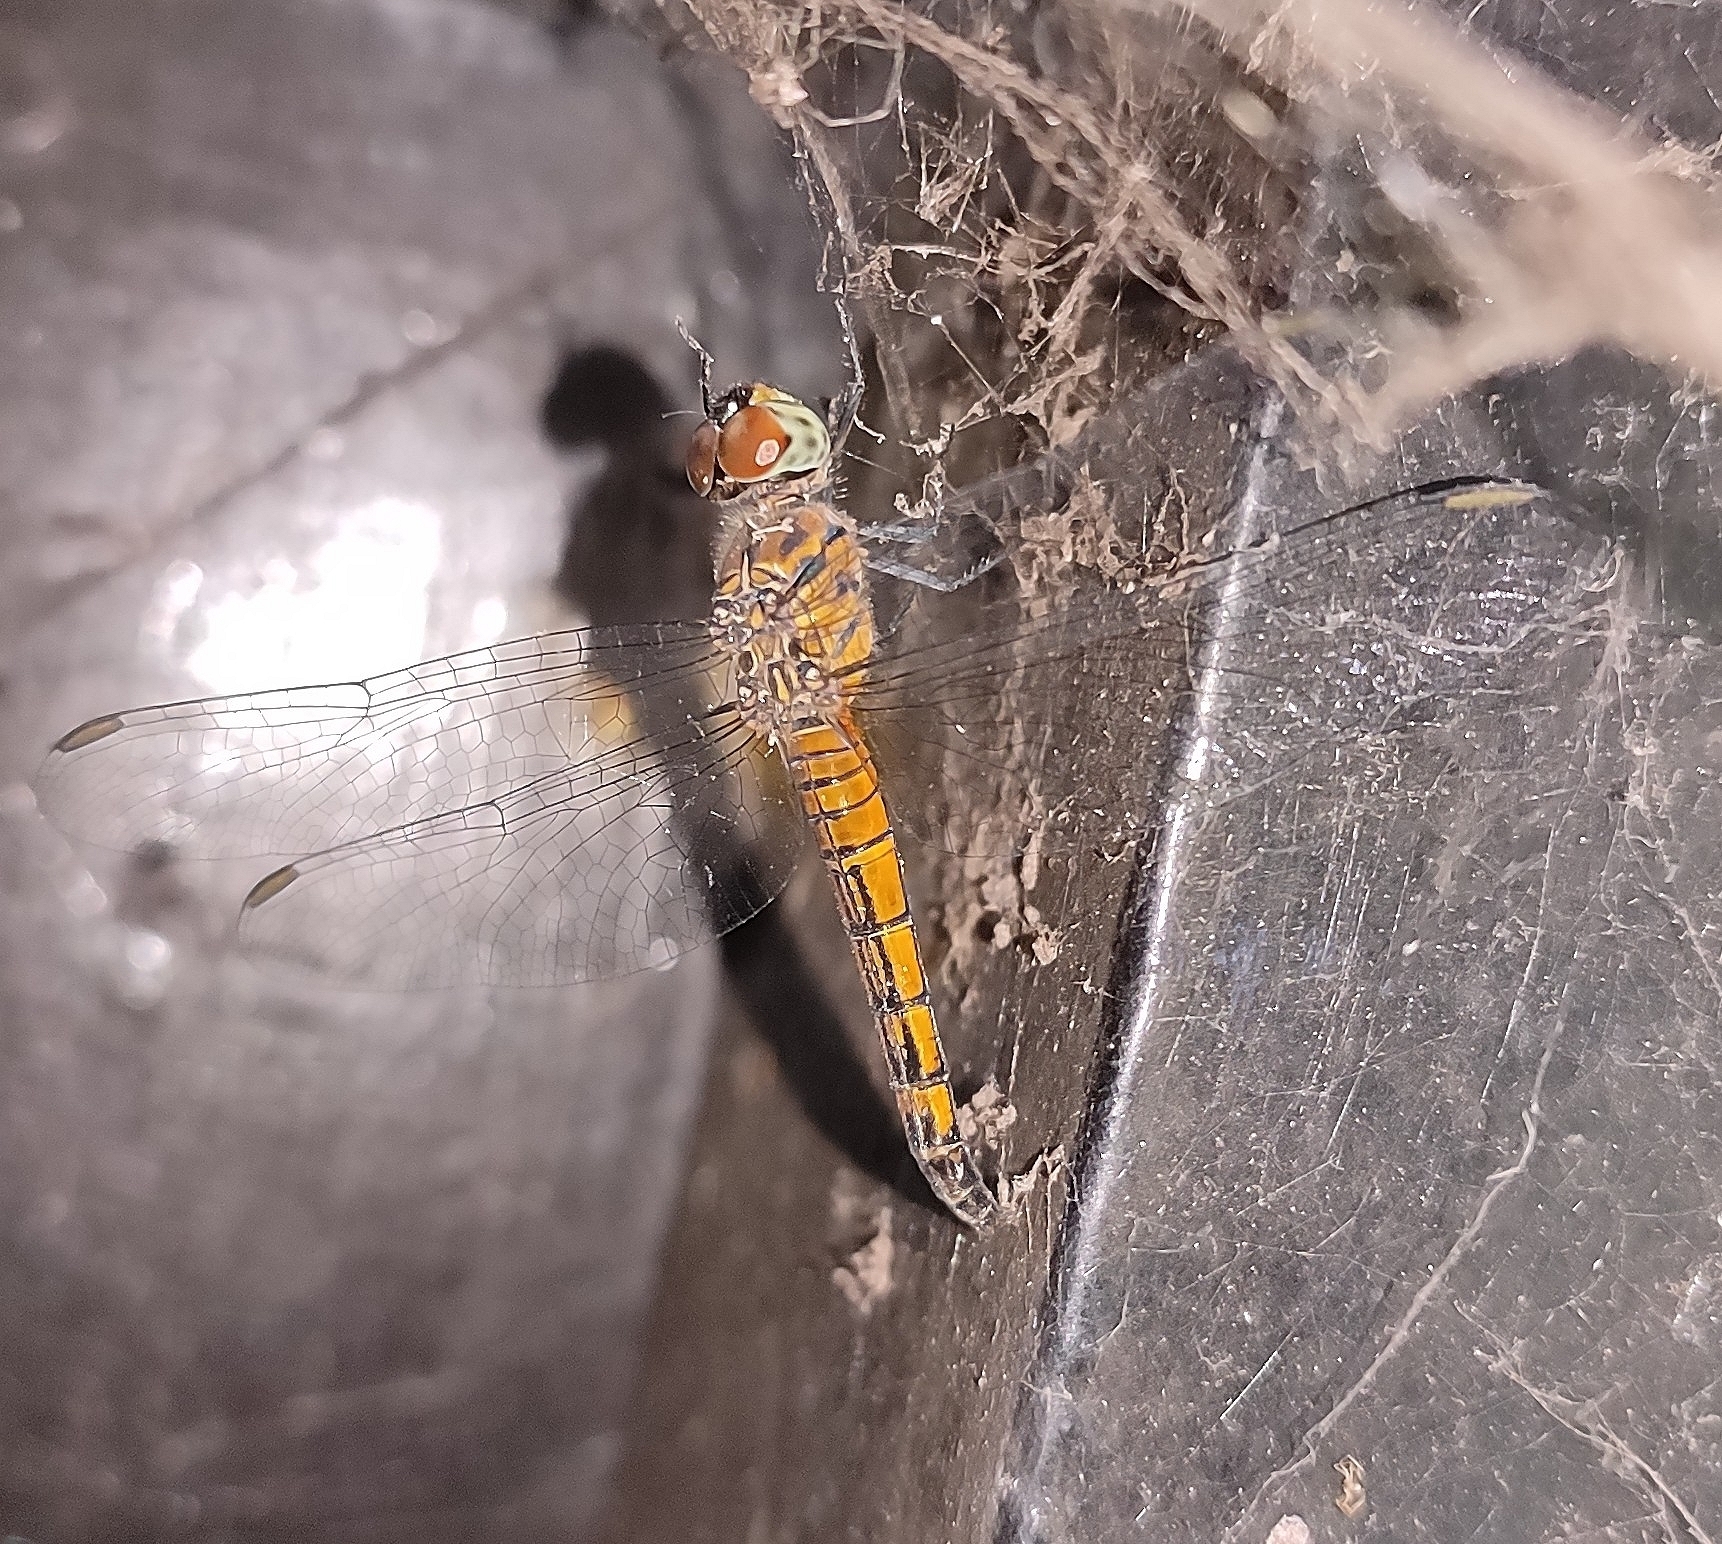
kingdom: Animalia
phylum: Arthropoda
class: Insecta
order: Odonata
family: Libellulidae
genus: Brachydiplax
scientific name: Brachydiplax chalybea
